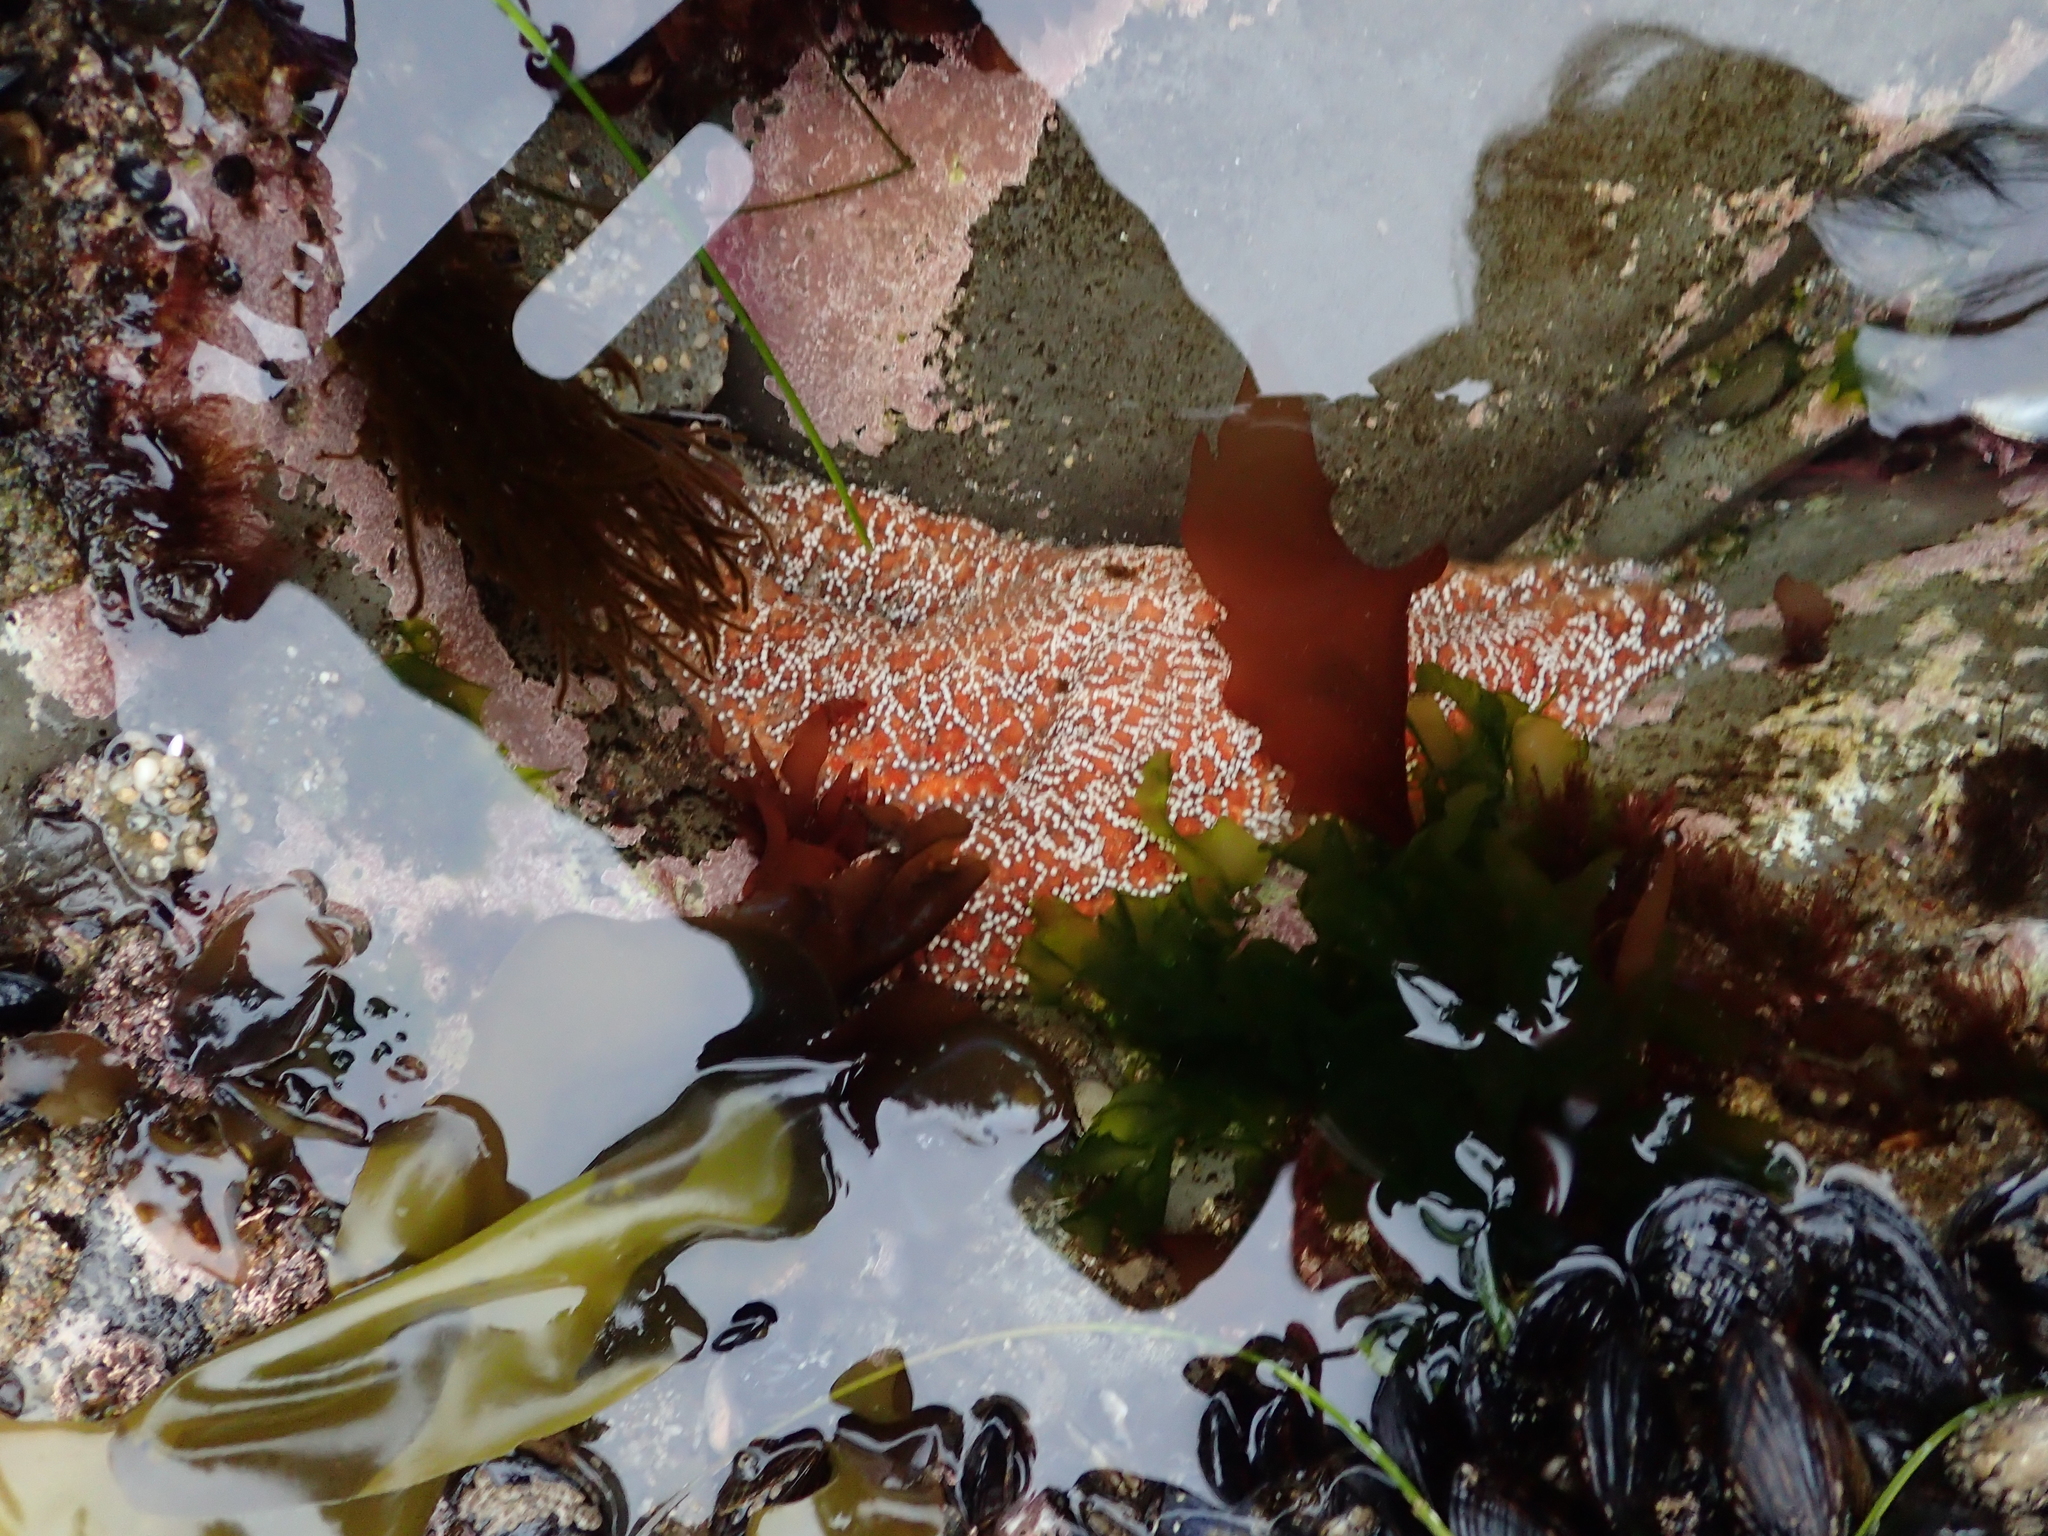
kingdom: Animalia
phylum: Echinodermata
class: Asteroidea
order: Forcipulatida
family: Asteriidae
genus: Pisaster
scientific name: Pisaster ochraceus
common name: Ochre stars
